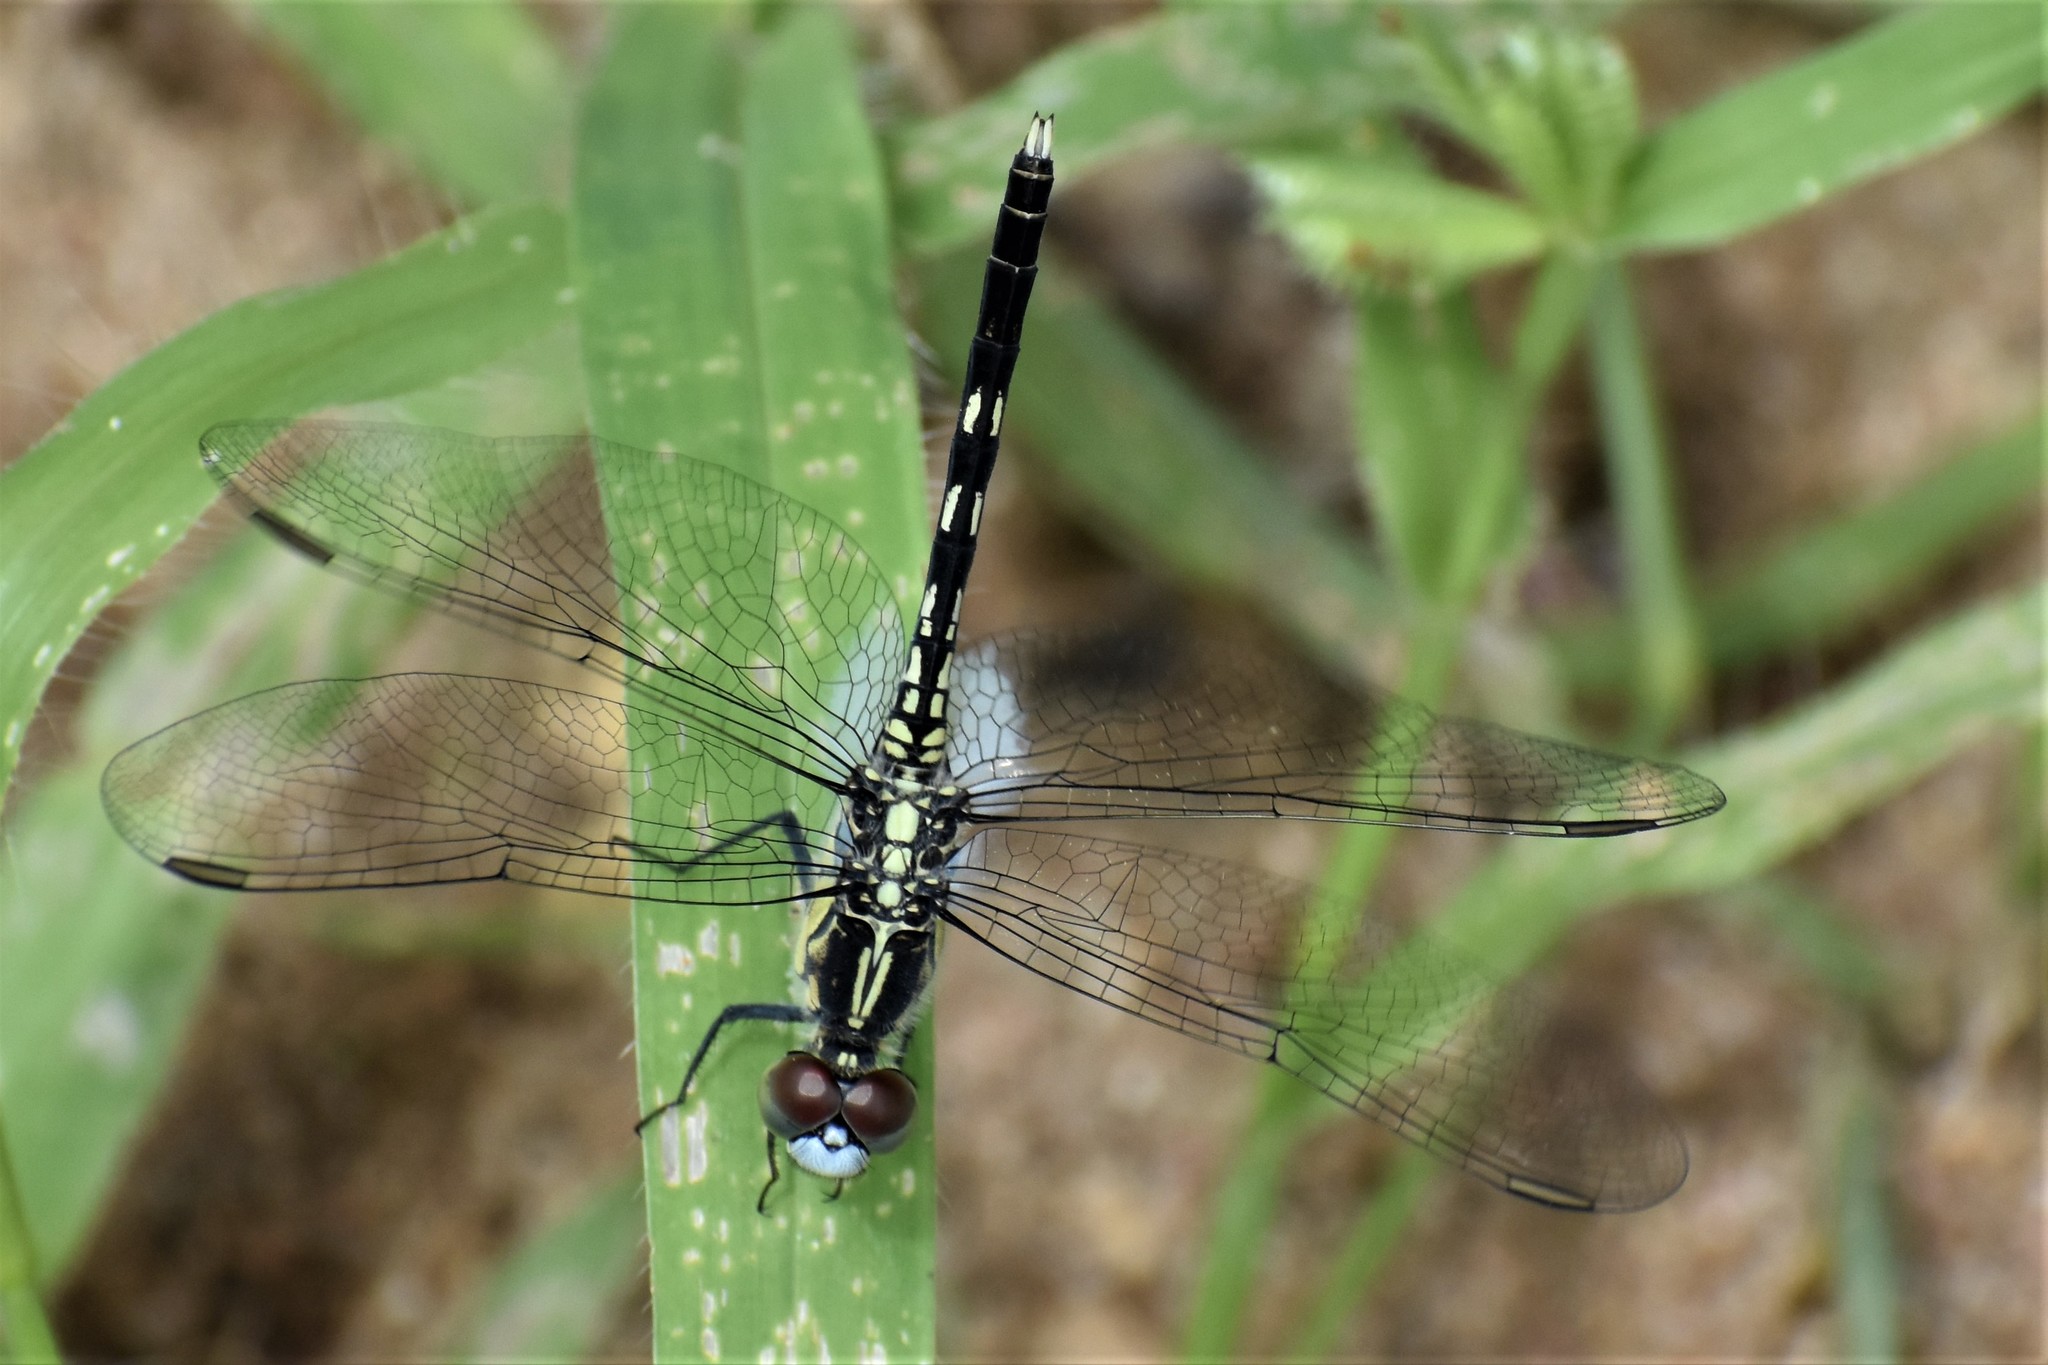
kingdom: Animalia
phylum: Arthropoda
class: Insecta
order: Odonata
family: Libellulidae
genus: Diplacodes
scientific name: Diplacodes trivialis
